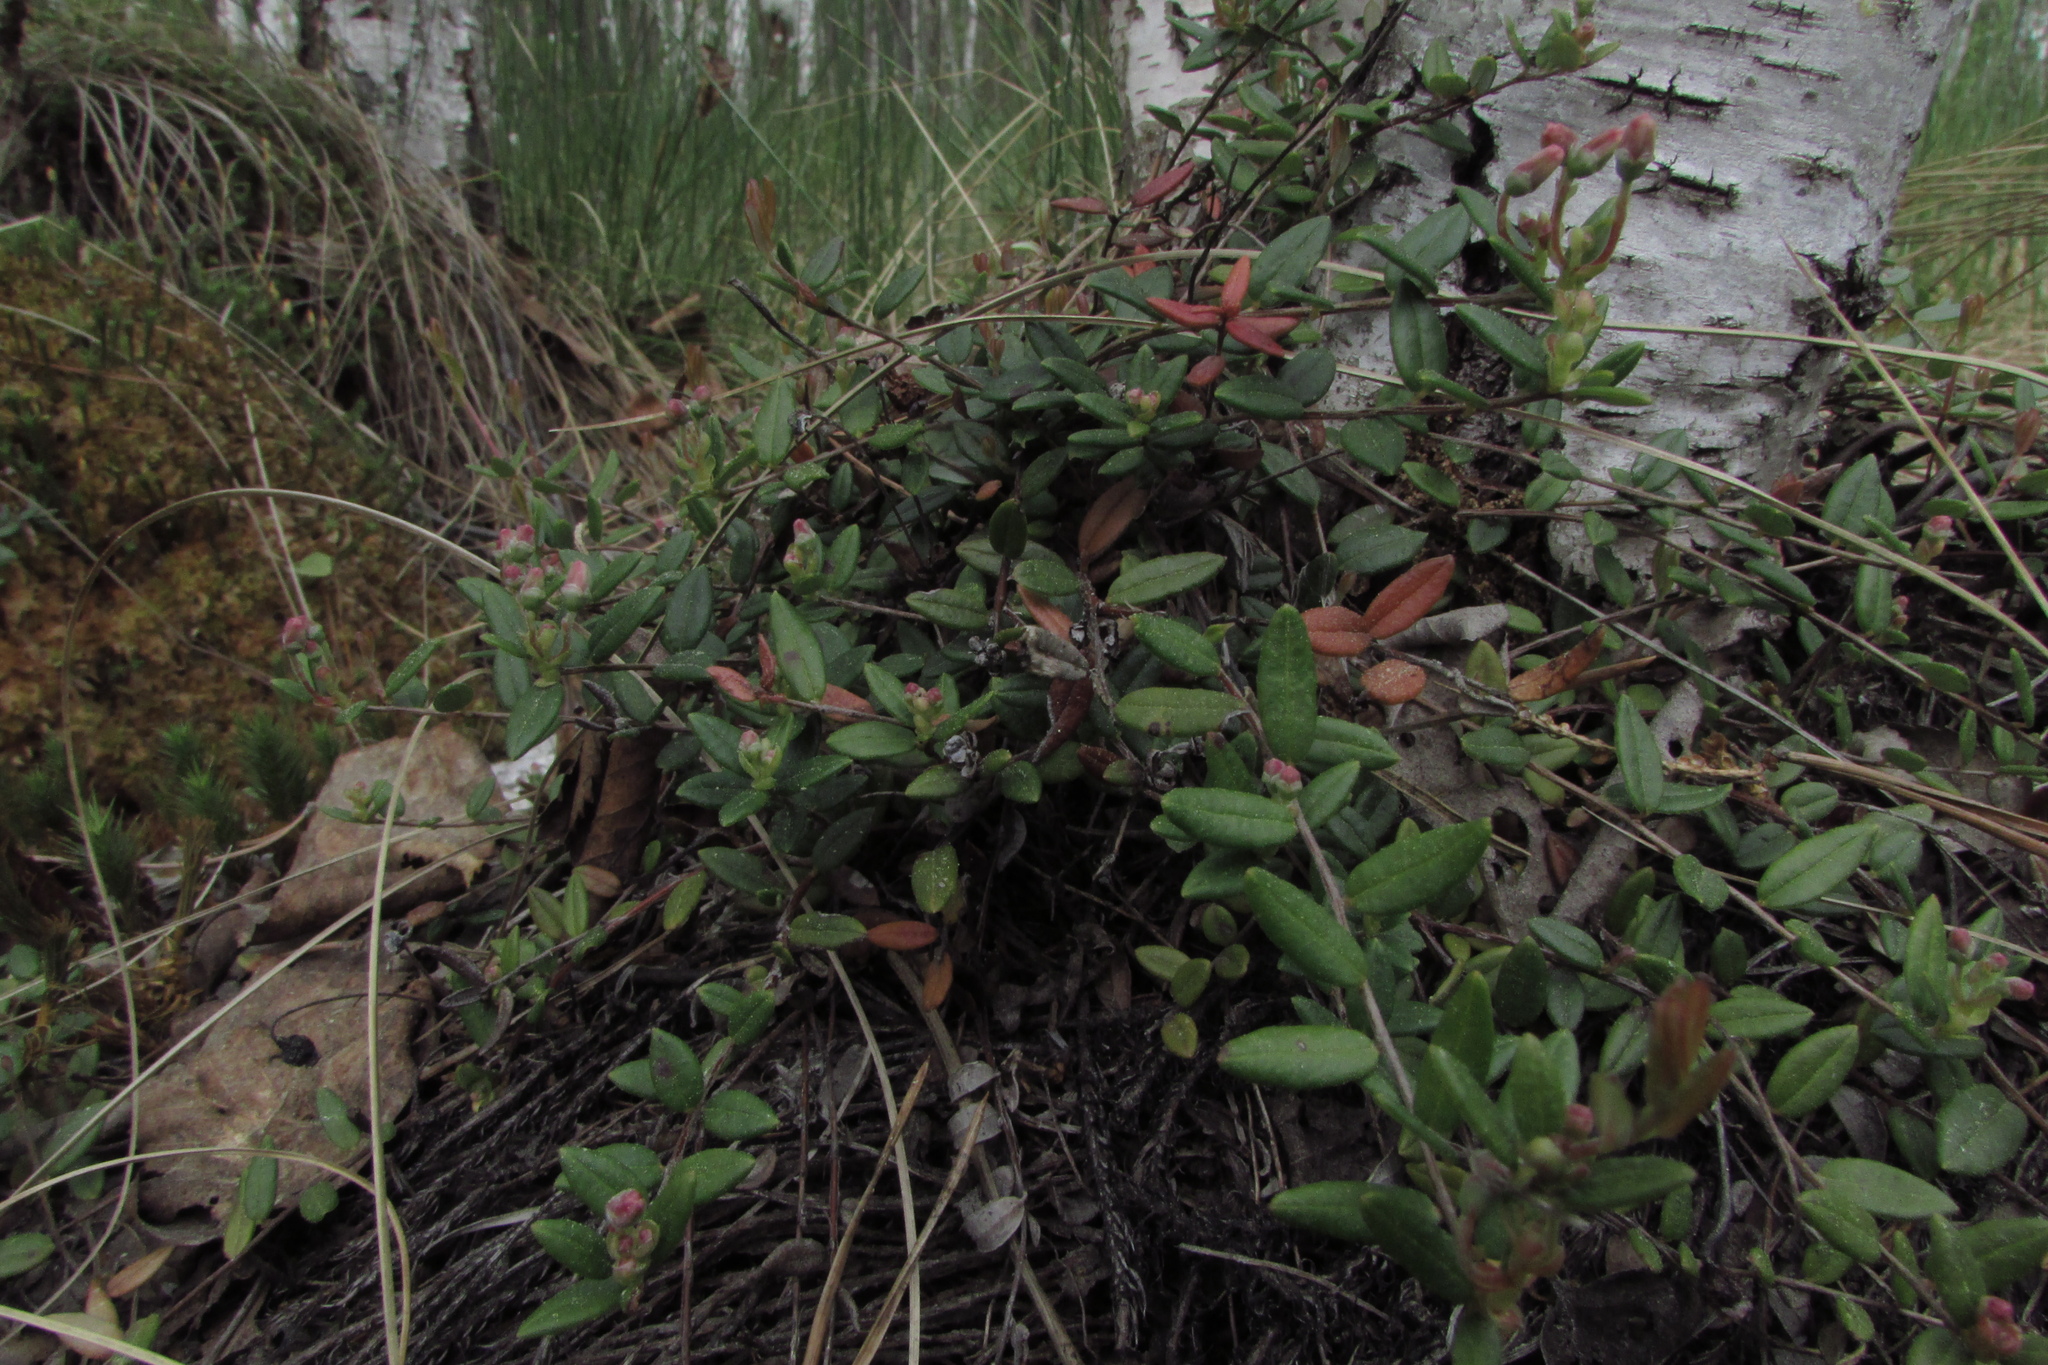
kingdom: Plantae
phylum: Tracheophyta
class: Magnoliopsida
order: Ericales
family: Ericaceae
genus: Vaccinium
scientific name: Vaccinium oxycoccos
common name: Cranberry
